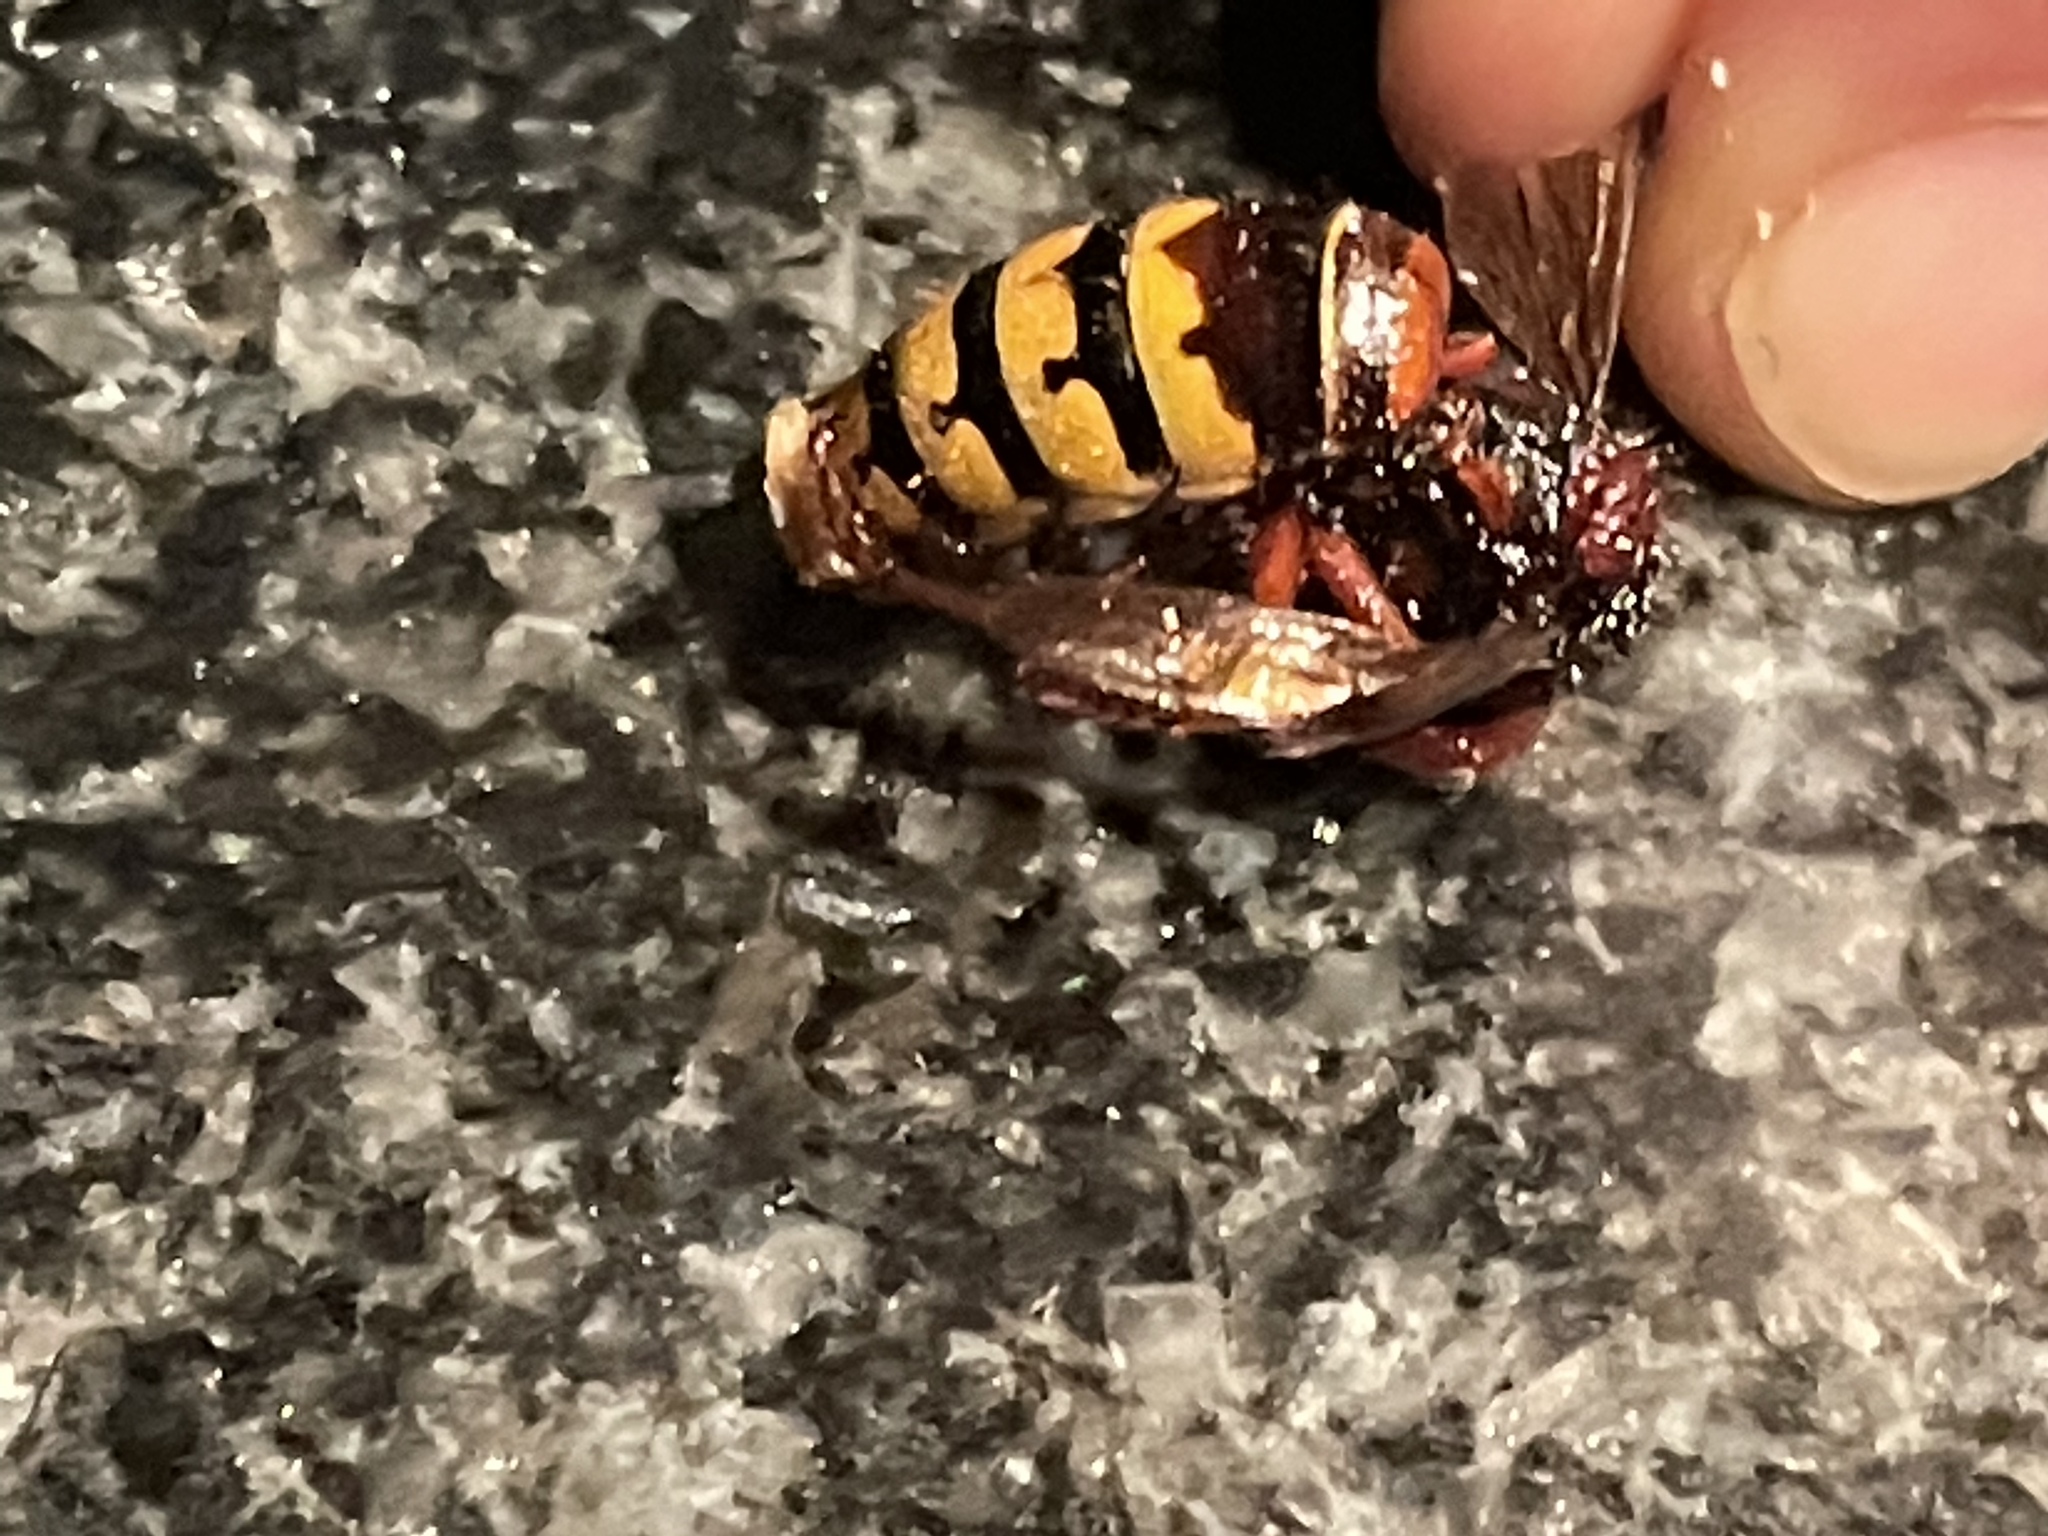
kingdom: Animalia
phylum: Arthropoda
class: Insecta
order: Hymenoptera
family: Vespidae
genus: Vespa
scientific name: Vespa crabro
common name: Hornet
